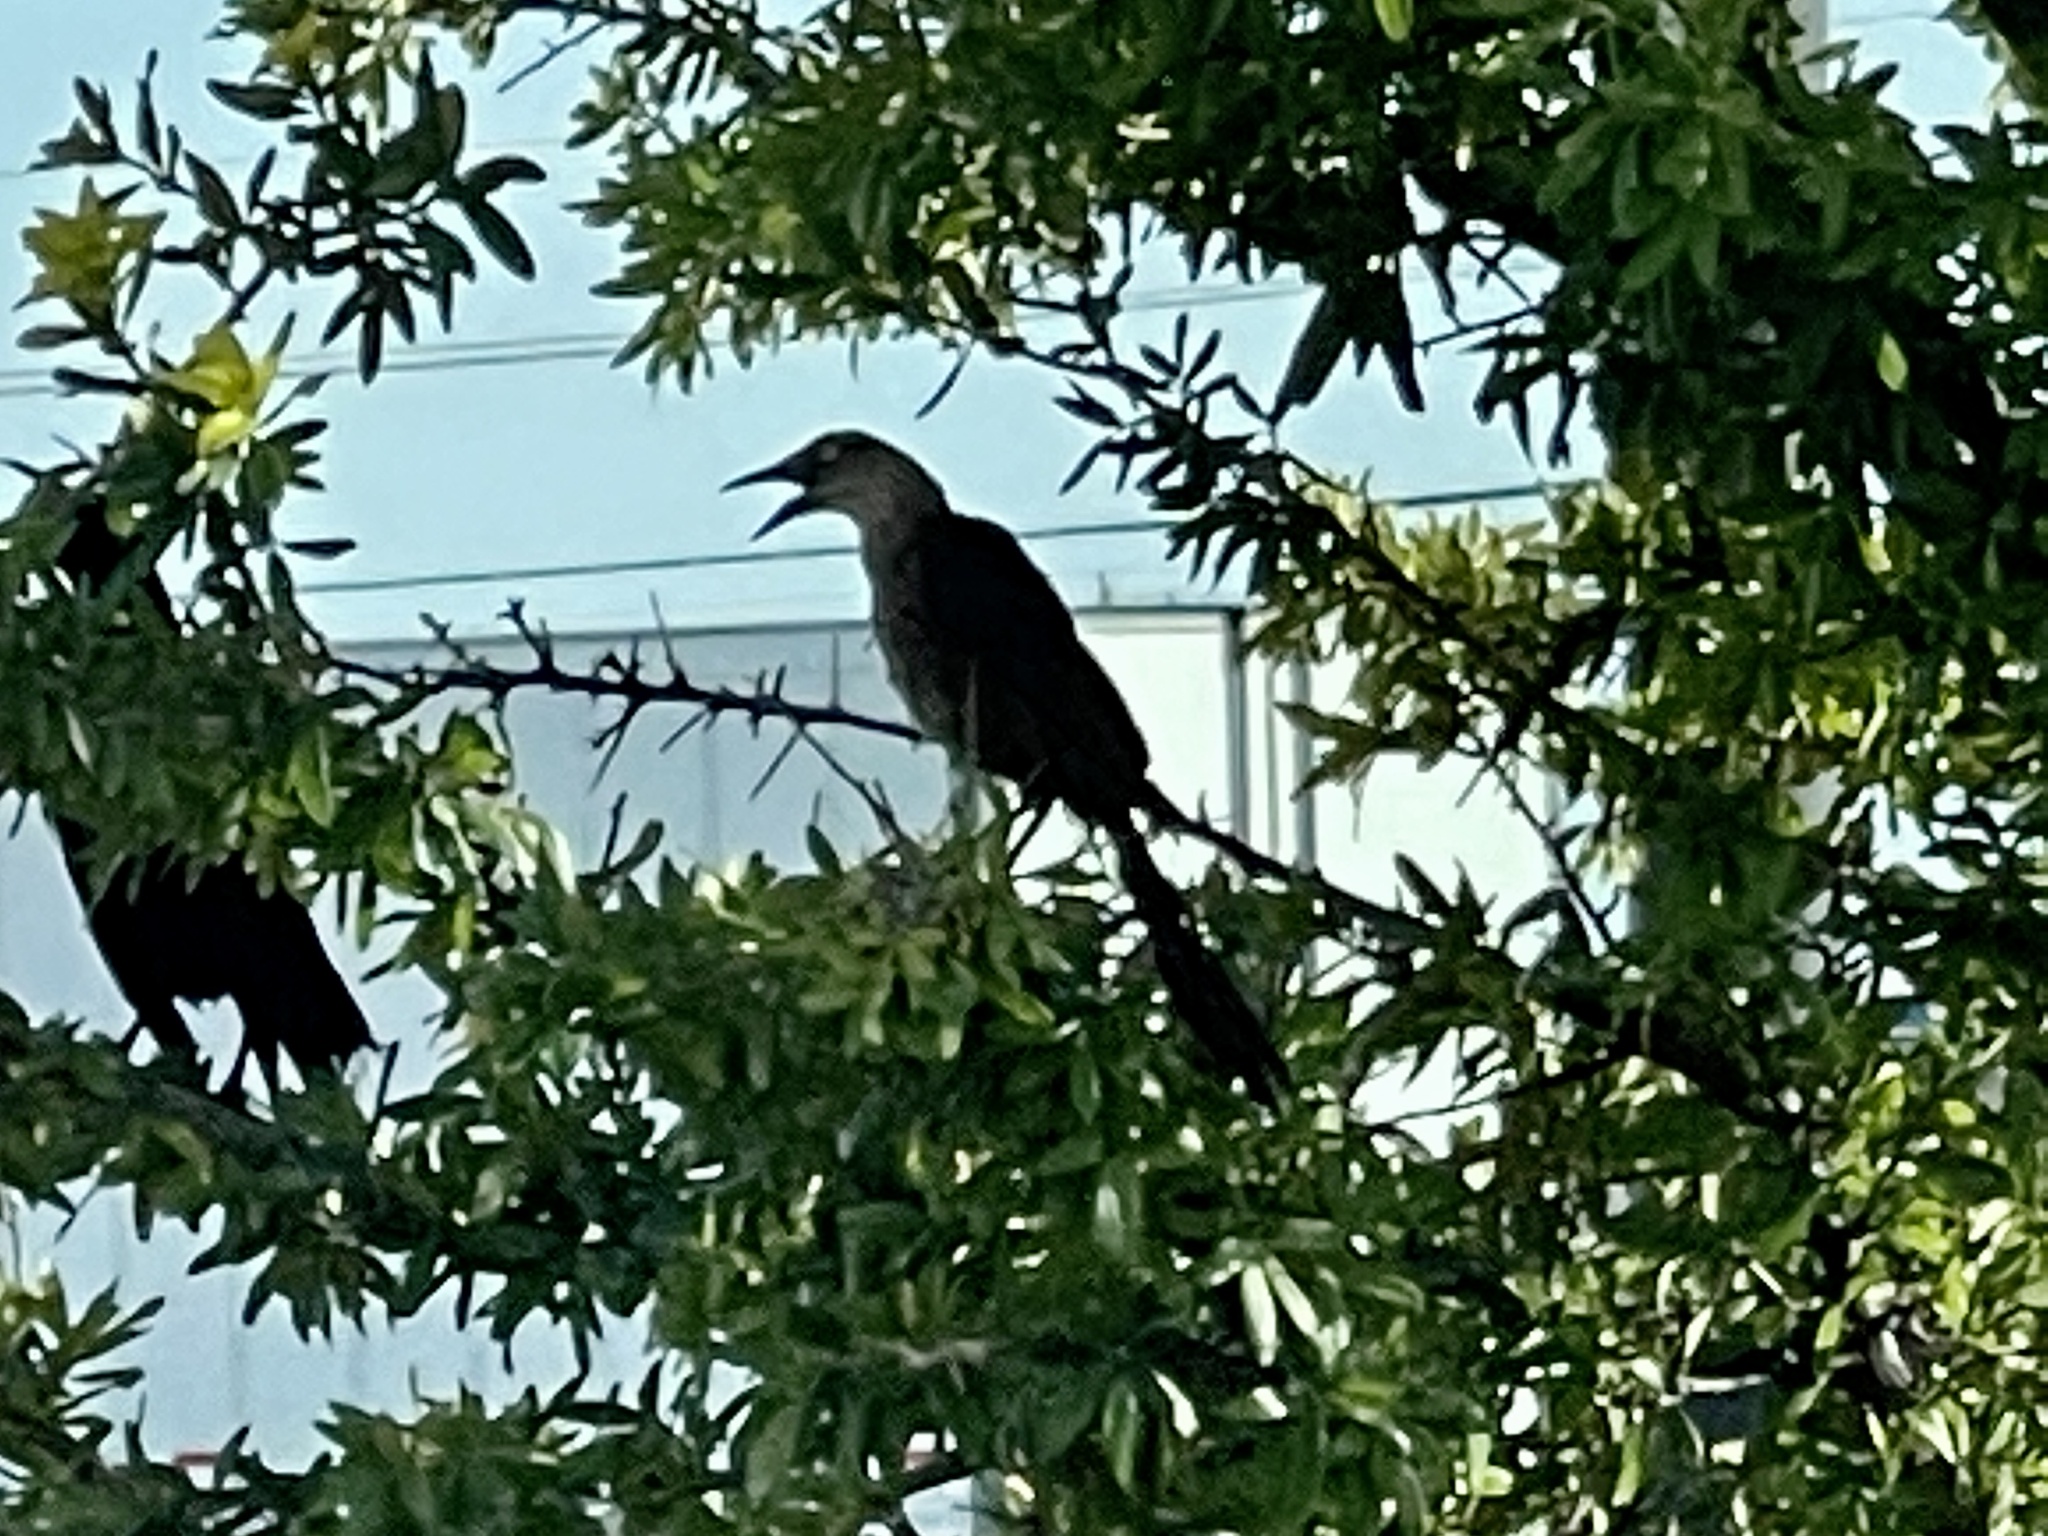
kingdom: Animalia
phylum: Chordata
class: Aves
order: Passeriformes
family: Icteridae
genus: Quiscalus
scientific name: Quiscalus mexicanus
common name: Great-tailed grackle
